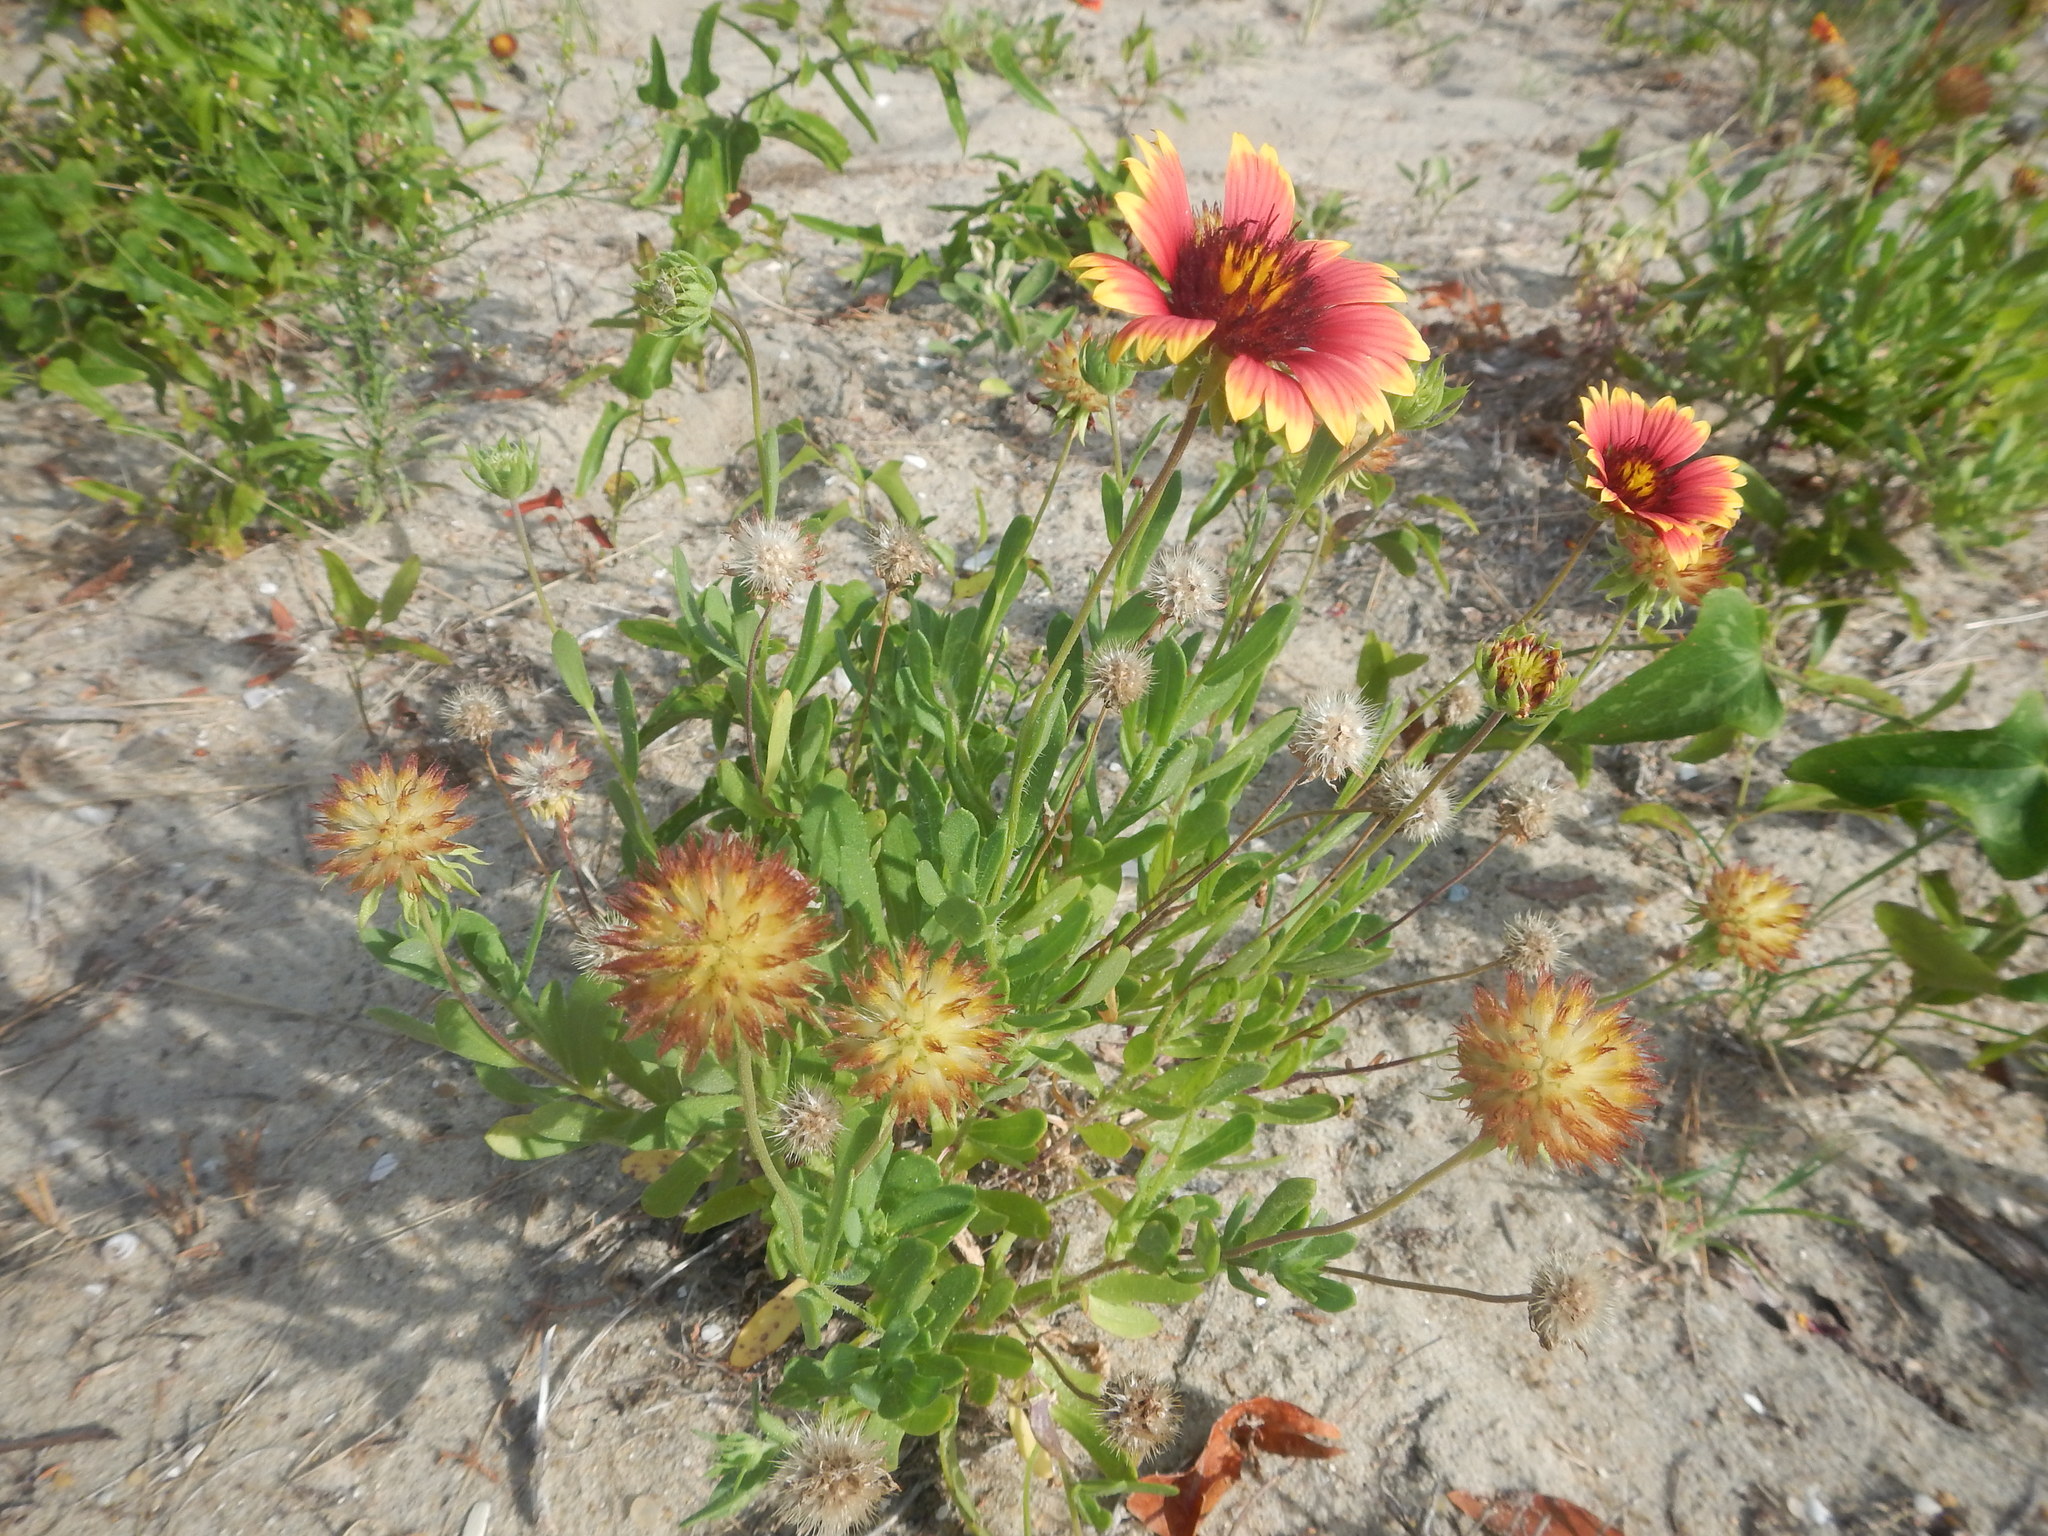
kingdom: Plantae
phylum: Tracheophyta
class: Magnoliopsida
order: Asterales
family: Asteraceae
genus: Gaillardia
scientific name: Gaillardia pulchella
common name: Firewheel
